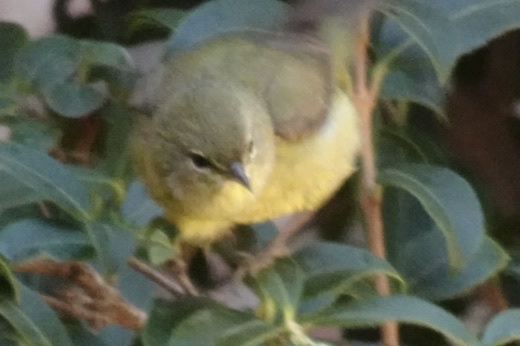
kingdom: Animalia
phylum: Chordata
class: Aves
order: Passeriformes
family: Parulidae
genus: Leiothlypis
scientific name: Leiothlypis celata
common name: Orange-crowned warbler
